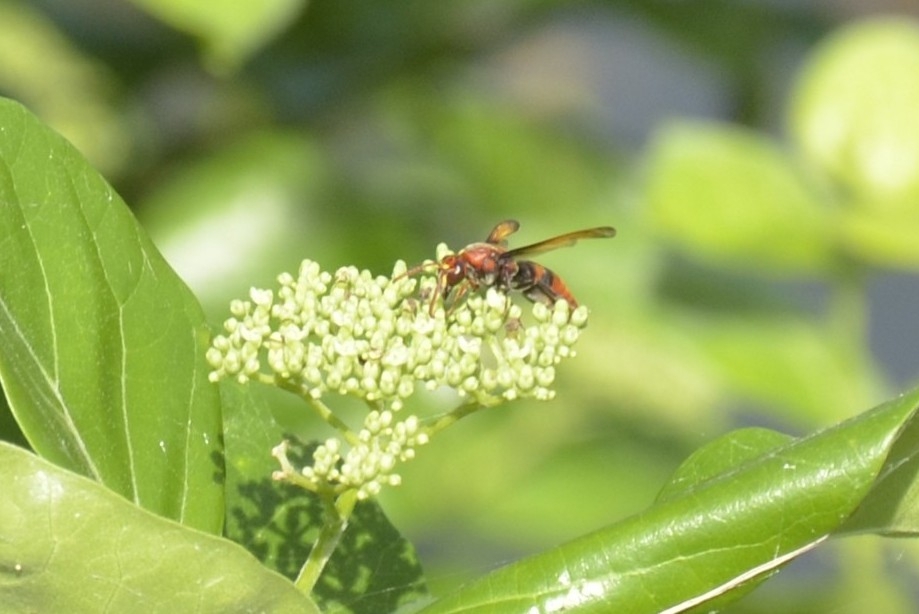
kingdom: Animalia
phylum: Arthropoda
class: Insecta
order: Hymenoptera
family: Eumenidae
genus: Rhynchium
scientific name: Rhynchium brunneum
